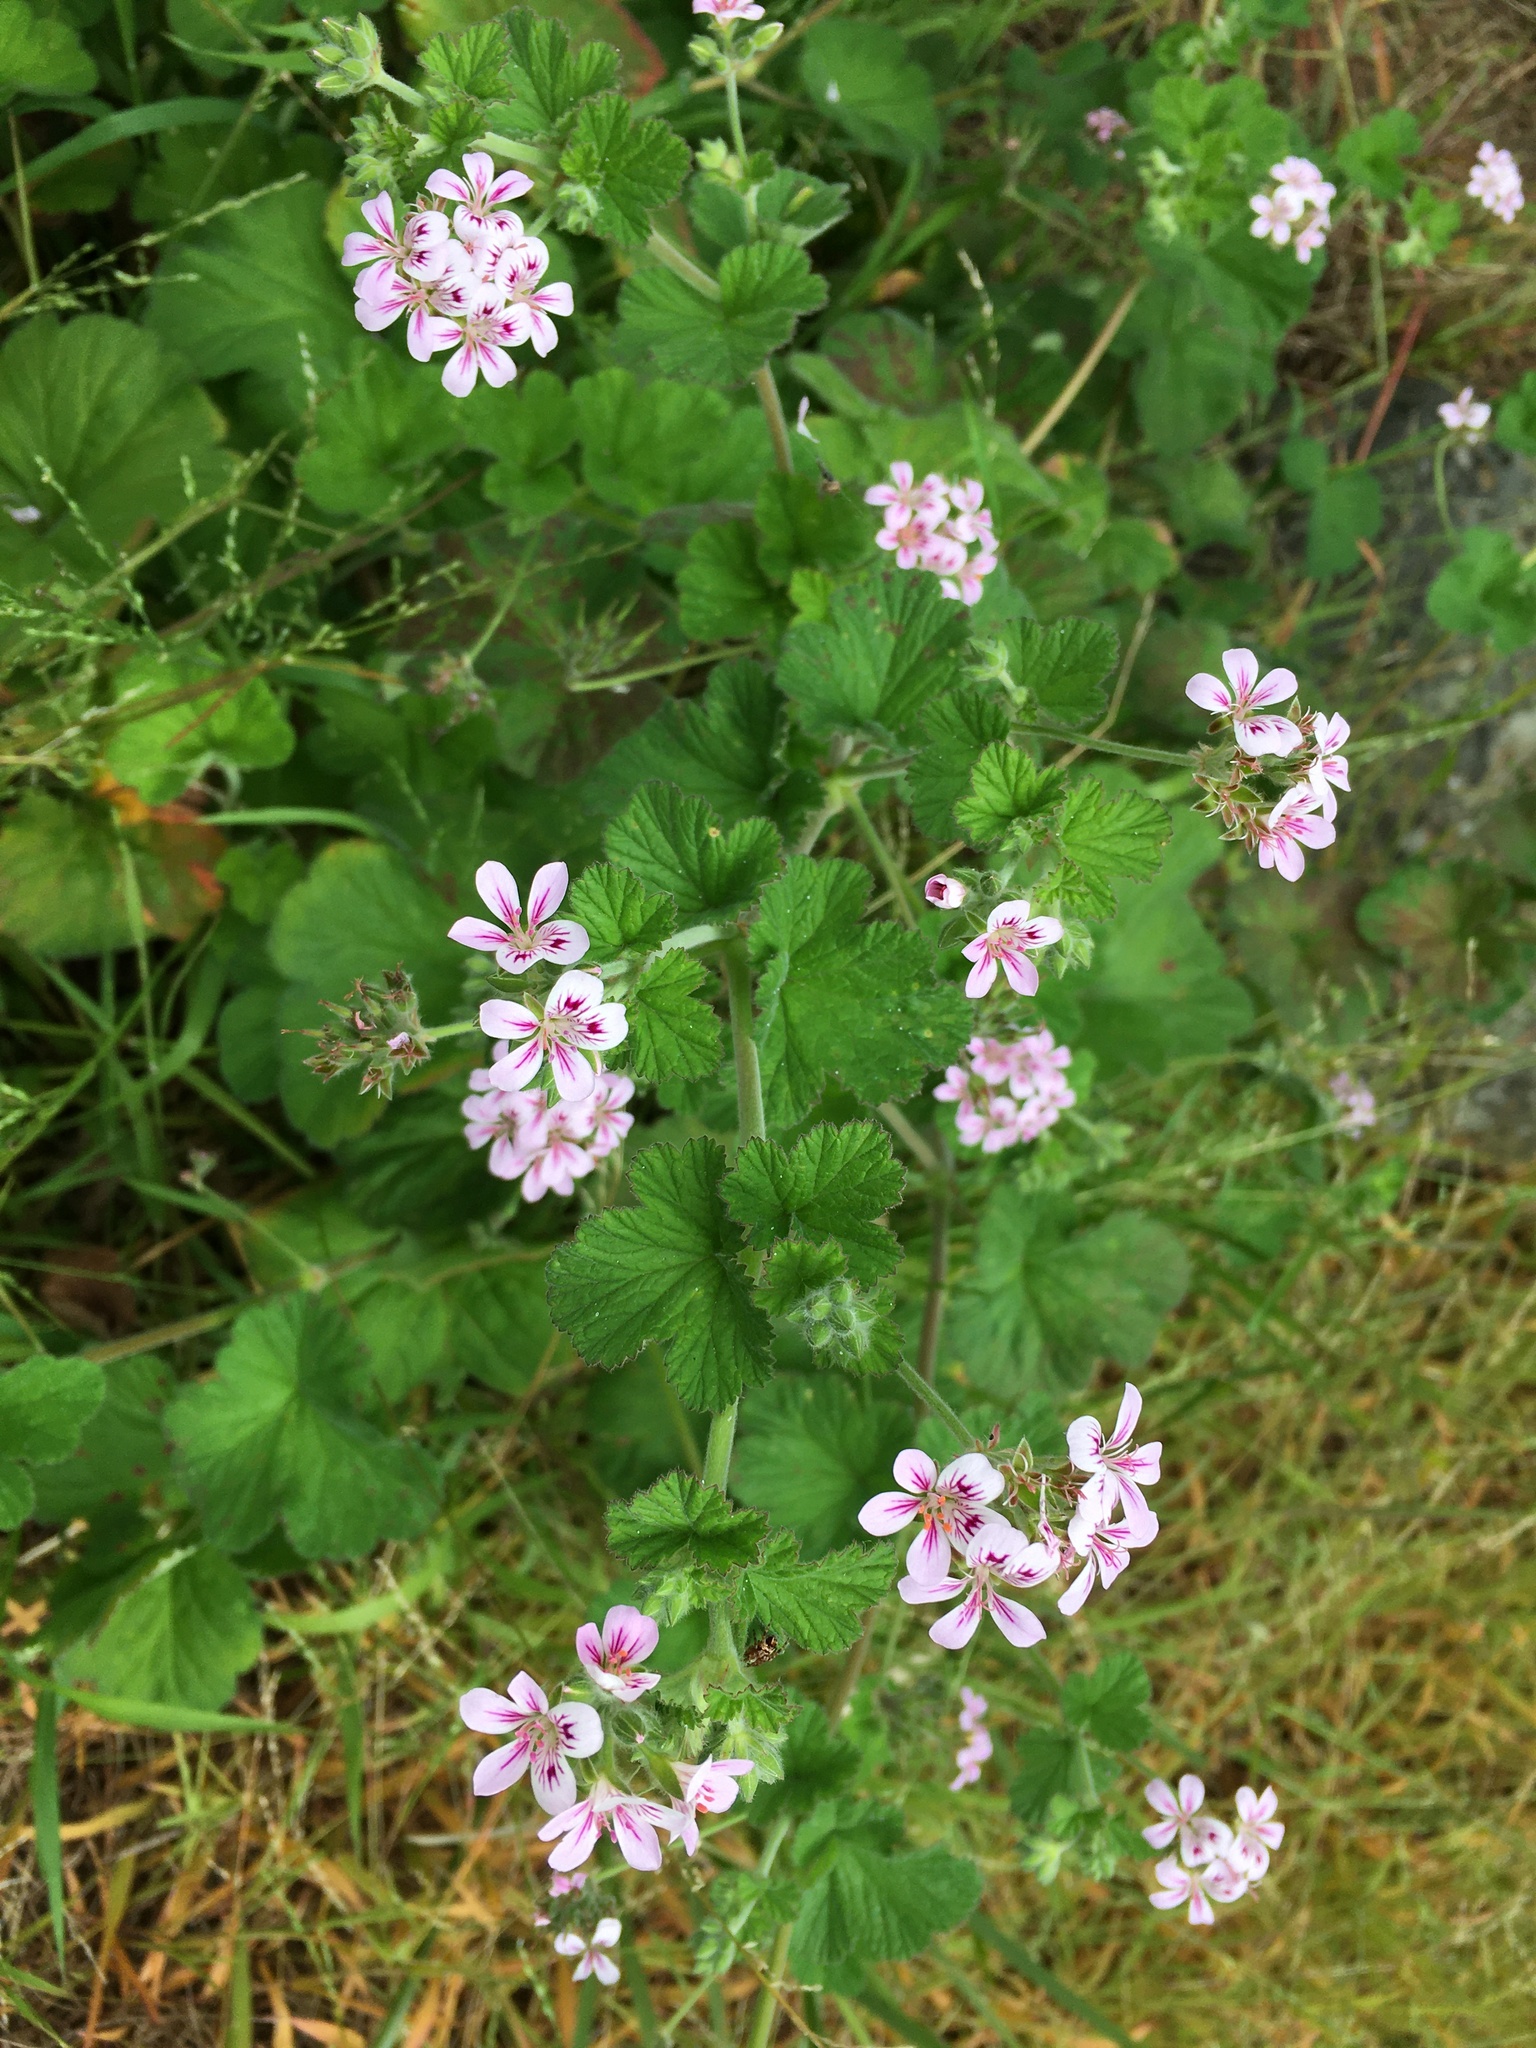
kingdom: Plantae
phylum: Tracheophyta
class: Magnoliopsida
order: Geraniales
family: Geraniaceae
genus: Pelargonium
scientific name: Pelargonium australe
